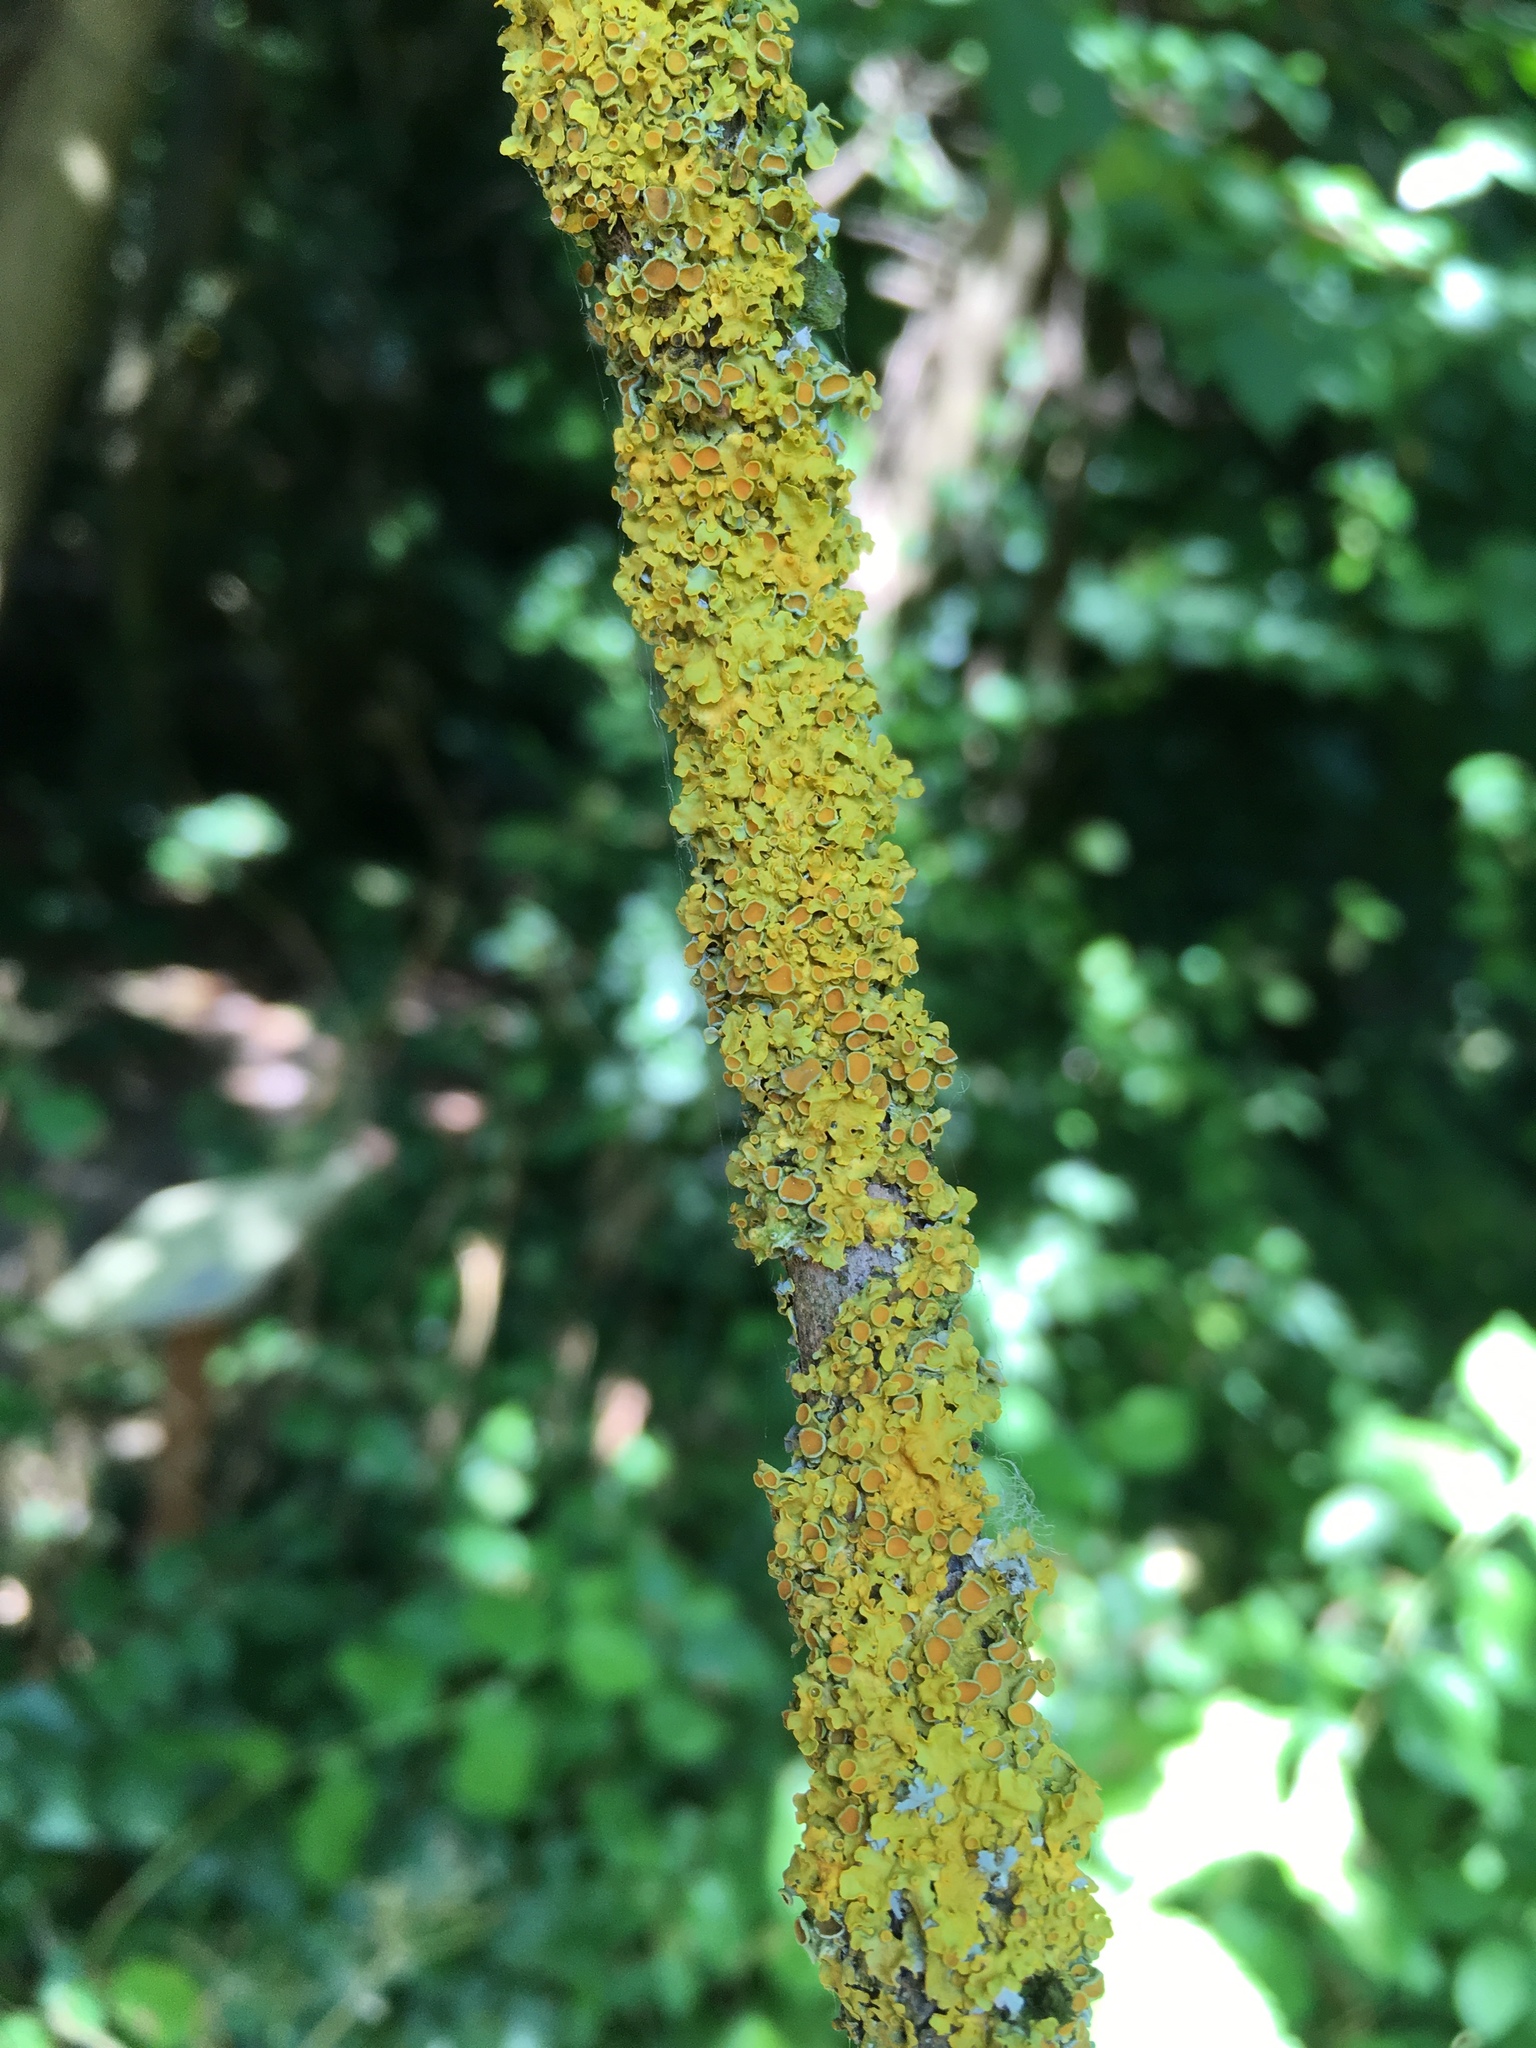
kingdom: Fungi
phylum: Ascomycota
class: Lecanoromycetes
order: Teloschistales
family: Teloschistaceae
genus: Xanthoria
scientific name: Xanthoria parietina
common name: Common orange lichen
